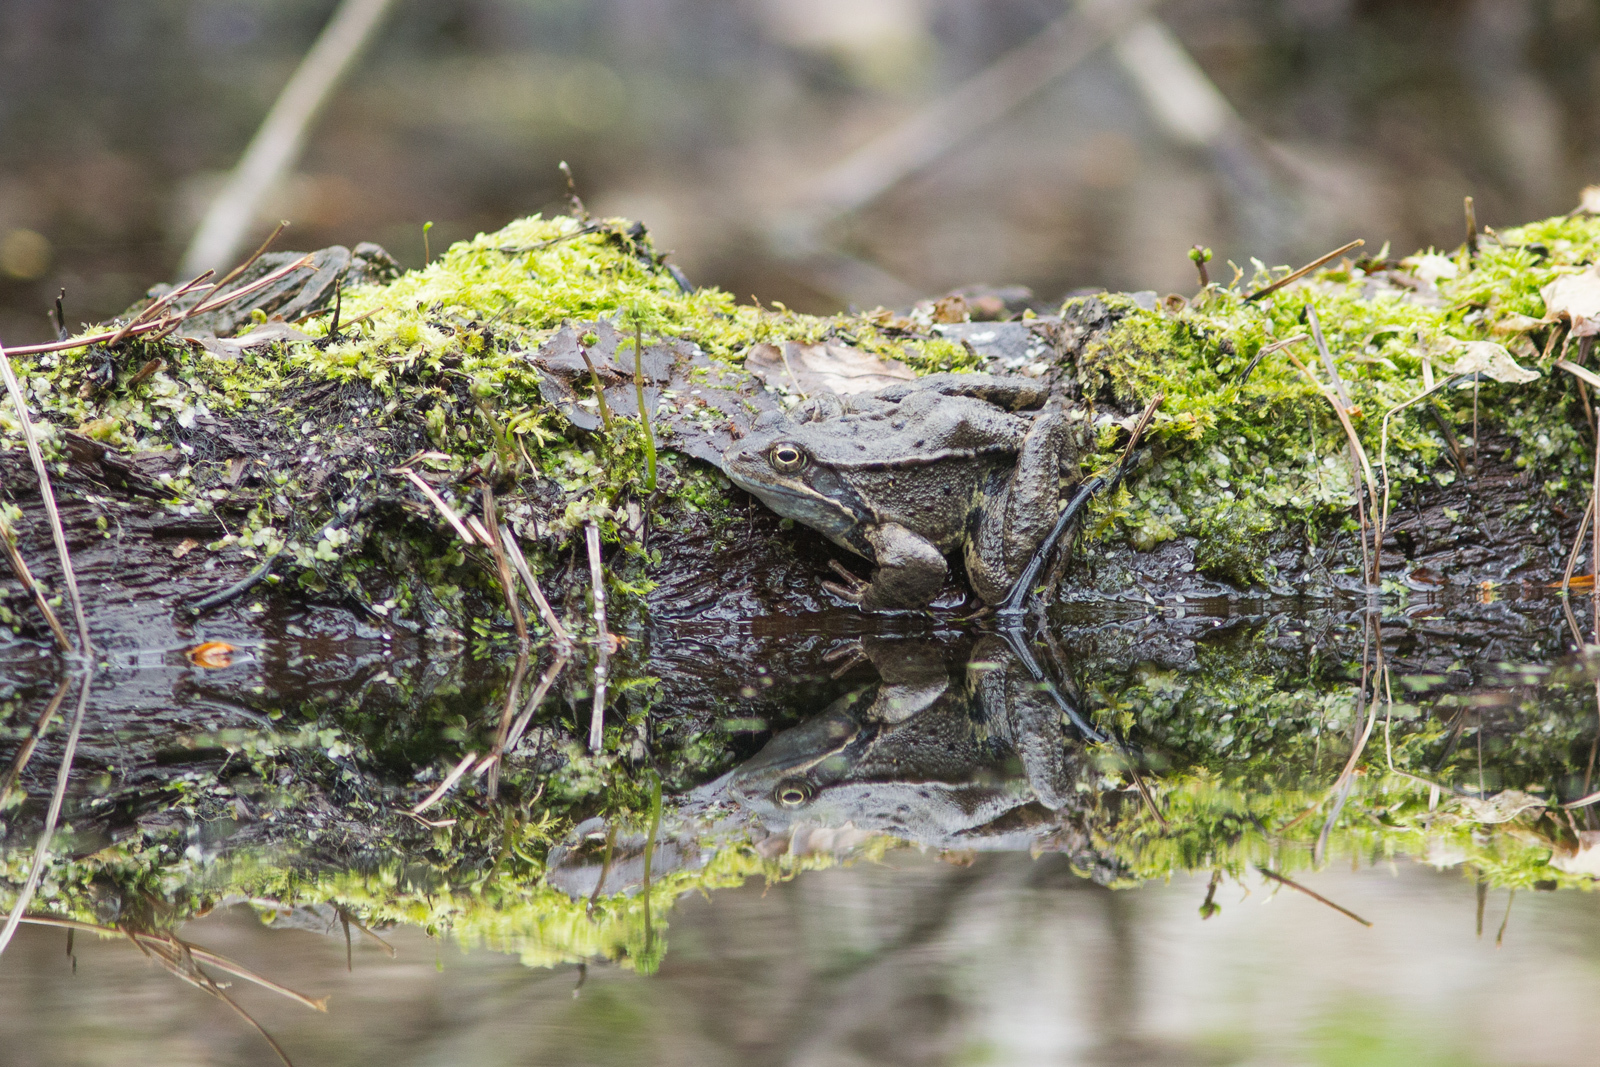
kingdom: Animalia
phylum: Chordata
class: Amphibia
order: Anura
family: Ranidae
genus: Rana
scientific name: Rana temporaria
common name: Common frog
